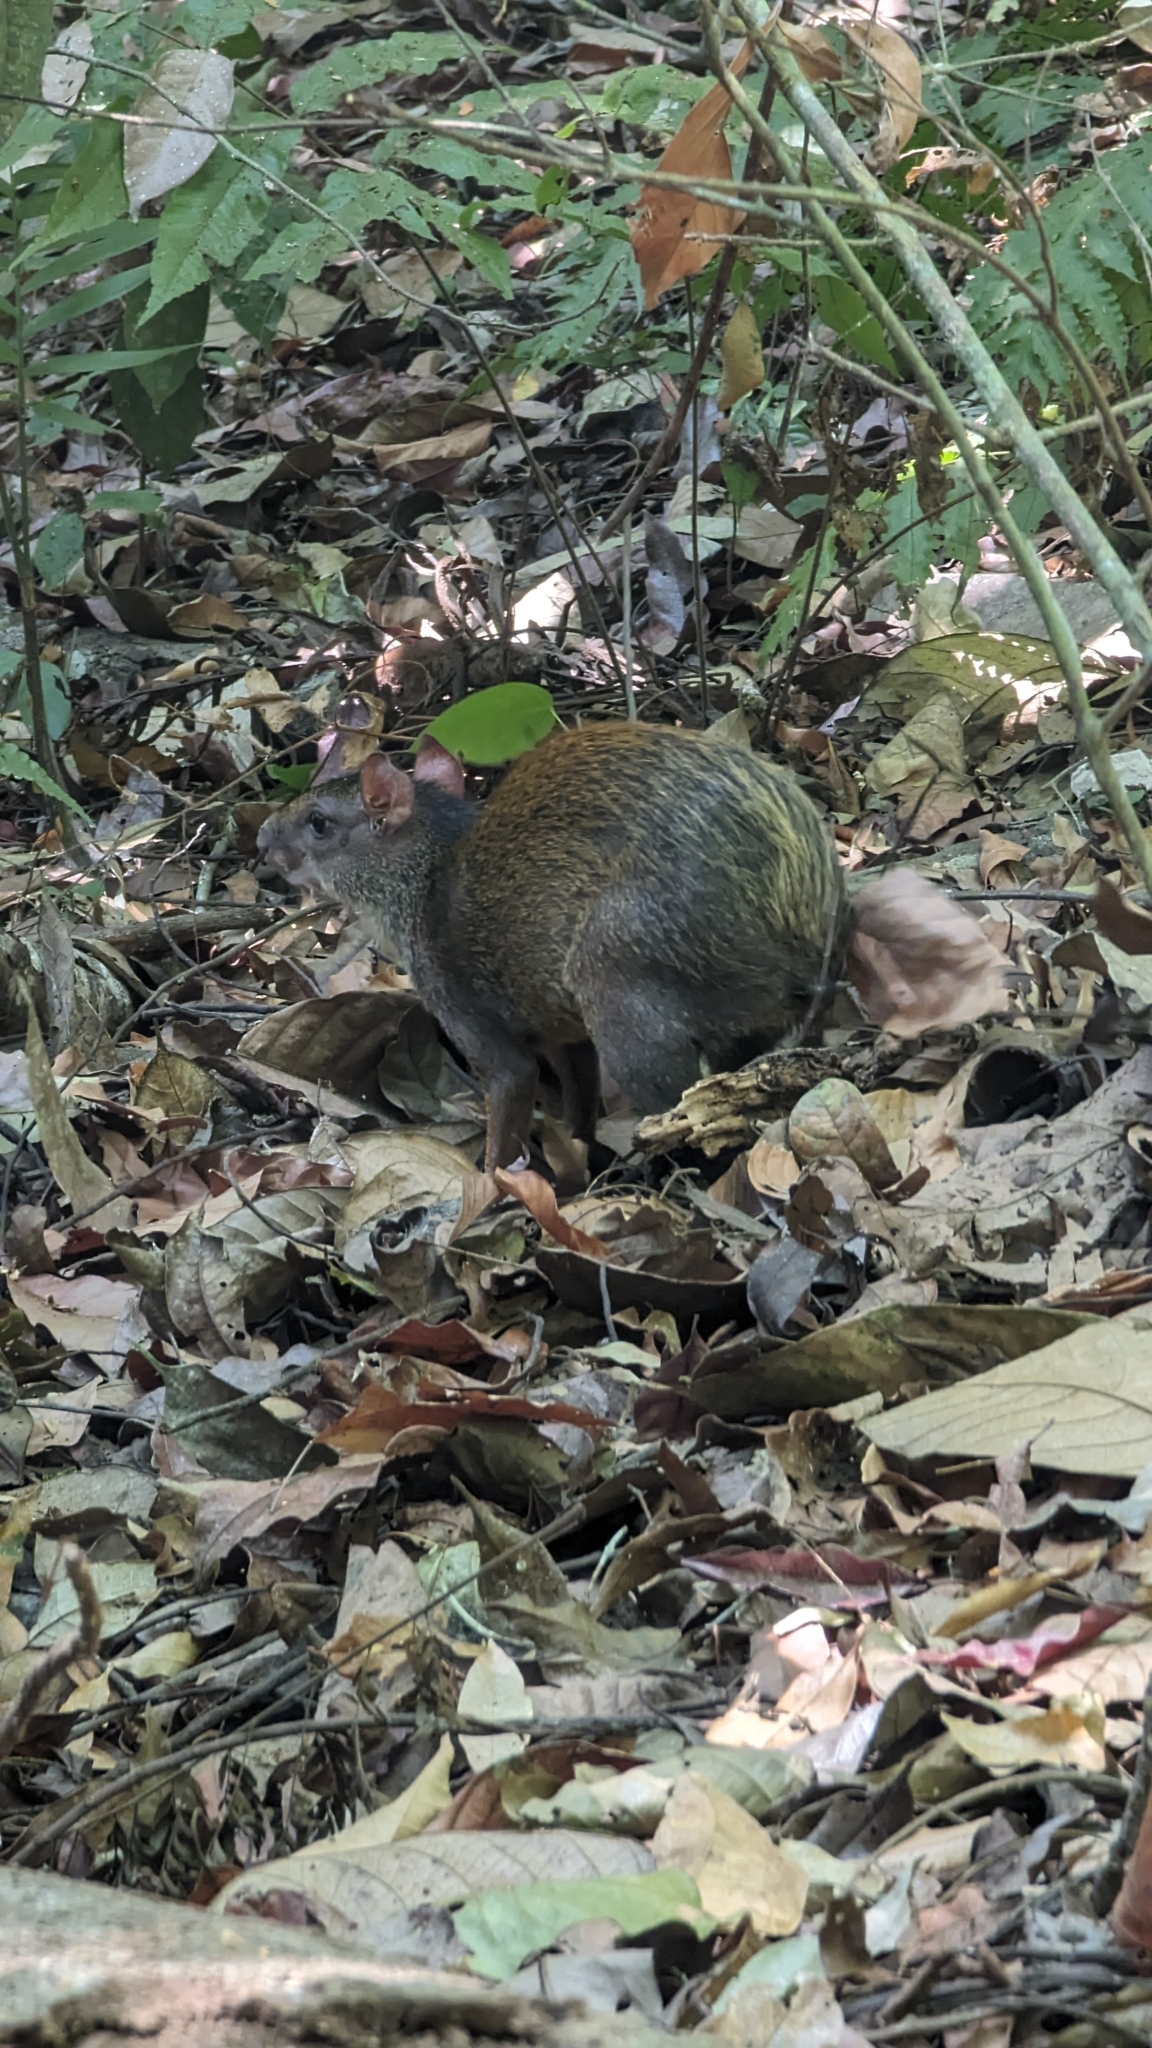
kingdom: Animalia
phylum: Chordata
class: Mammalia
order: Rodentia
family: Dasyproctidae
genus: Dasyprocta
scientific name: Dasyprocta punctata
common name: Central american agouti
